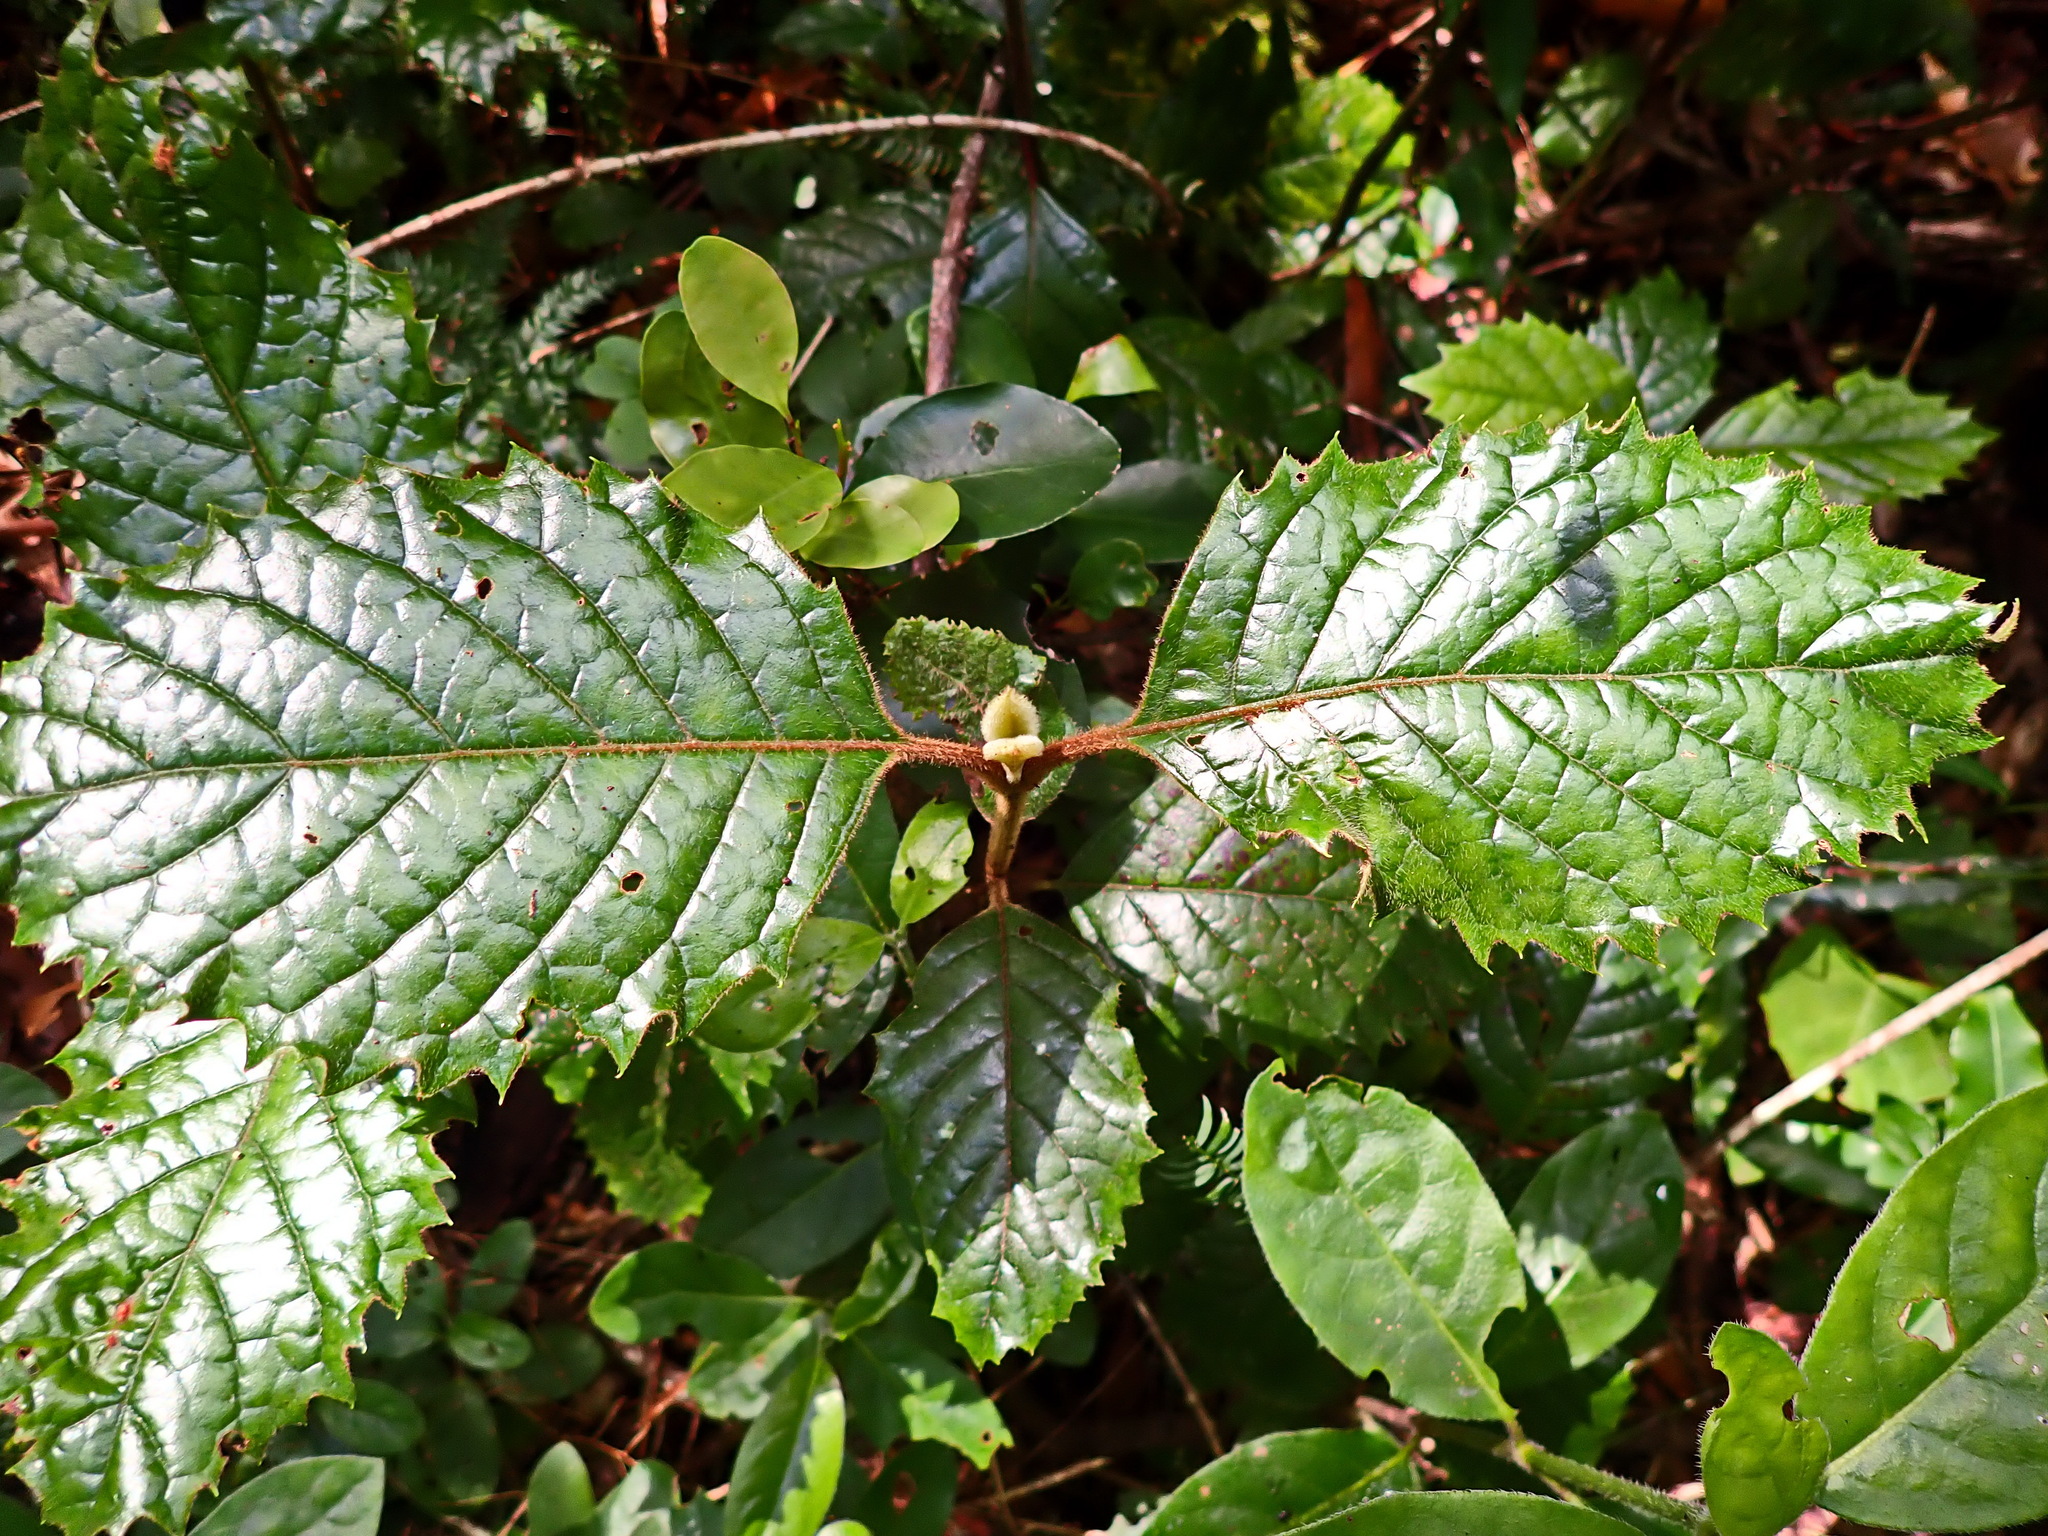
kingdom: Plantae
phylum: Tracheophyta
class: Magnoliopsida
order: Cornales
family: Curtisiaceae
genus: Curtisia
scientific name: Curtisia dentata
